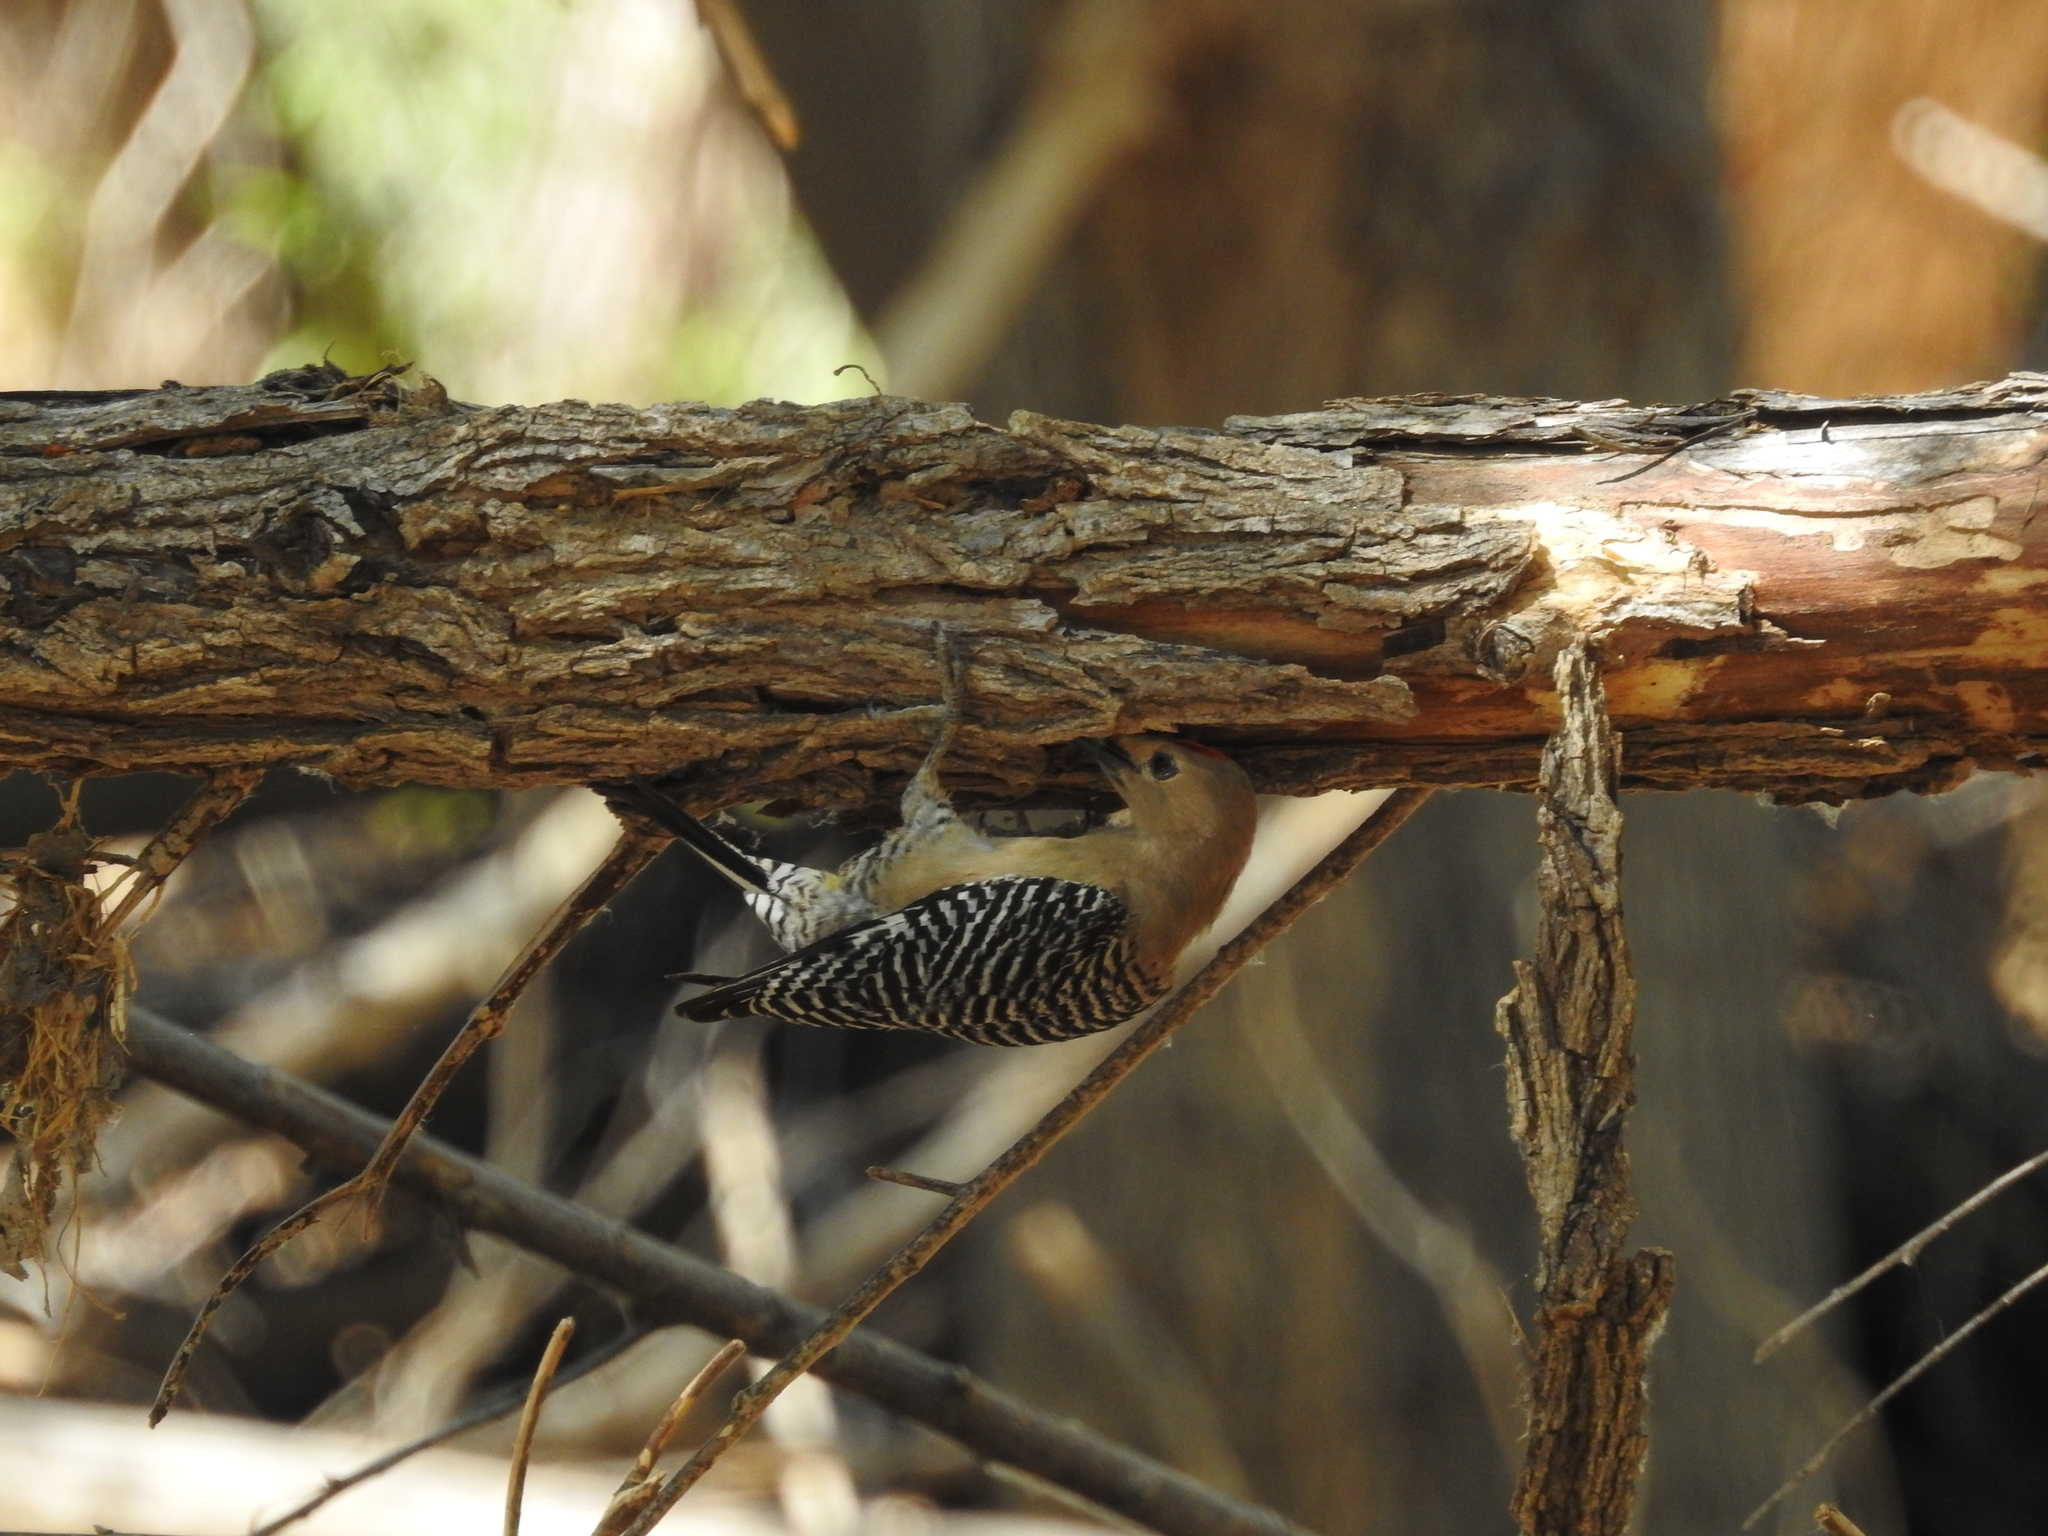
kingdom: Animalia
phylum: Chordata
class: Aves
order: Piciformes
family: Picidae
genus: Melanerpes
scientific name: Melanerpes uropygialis
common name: Gila woodpecker
